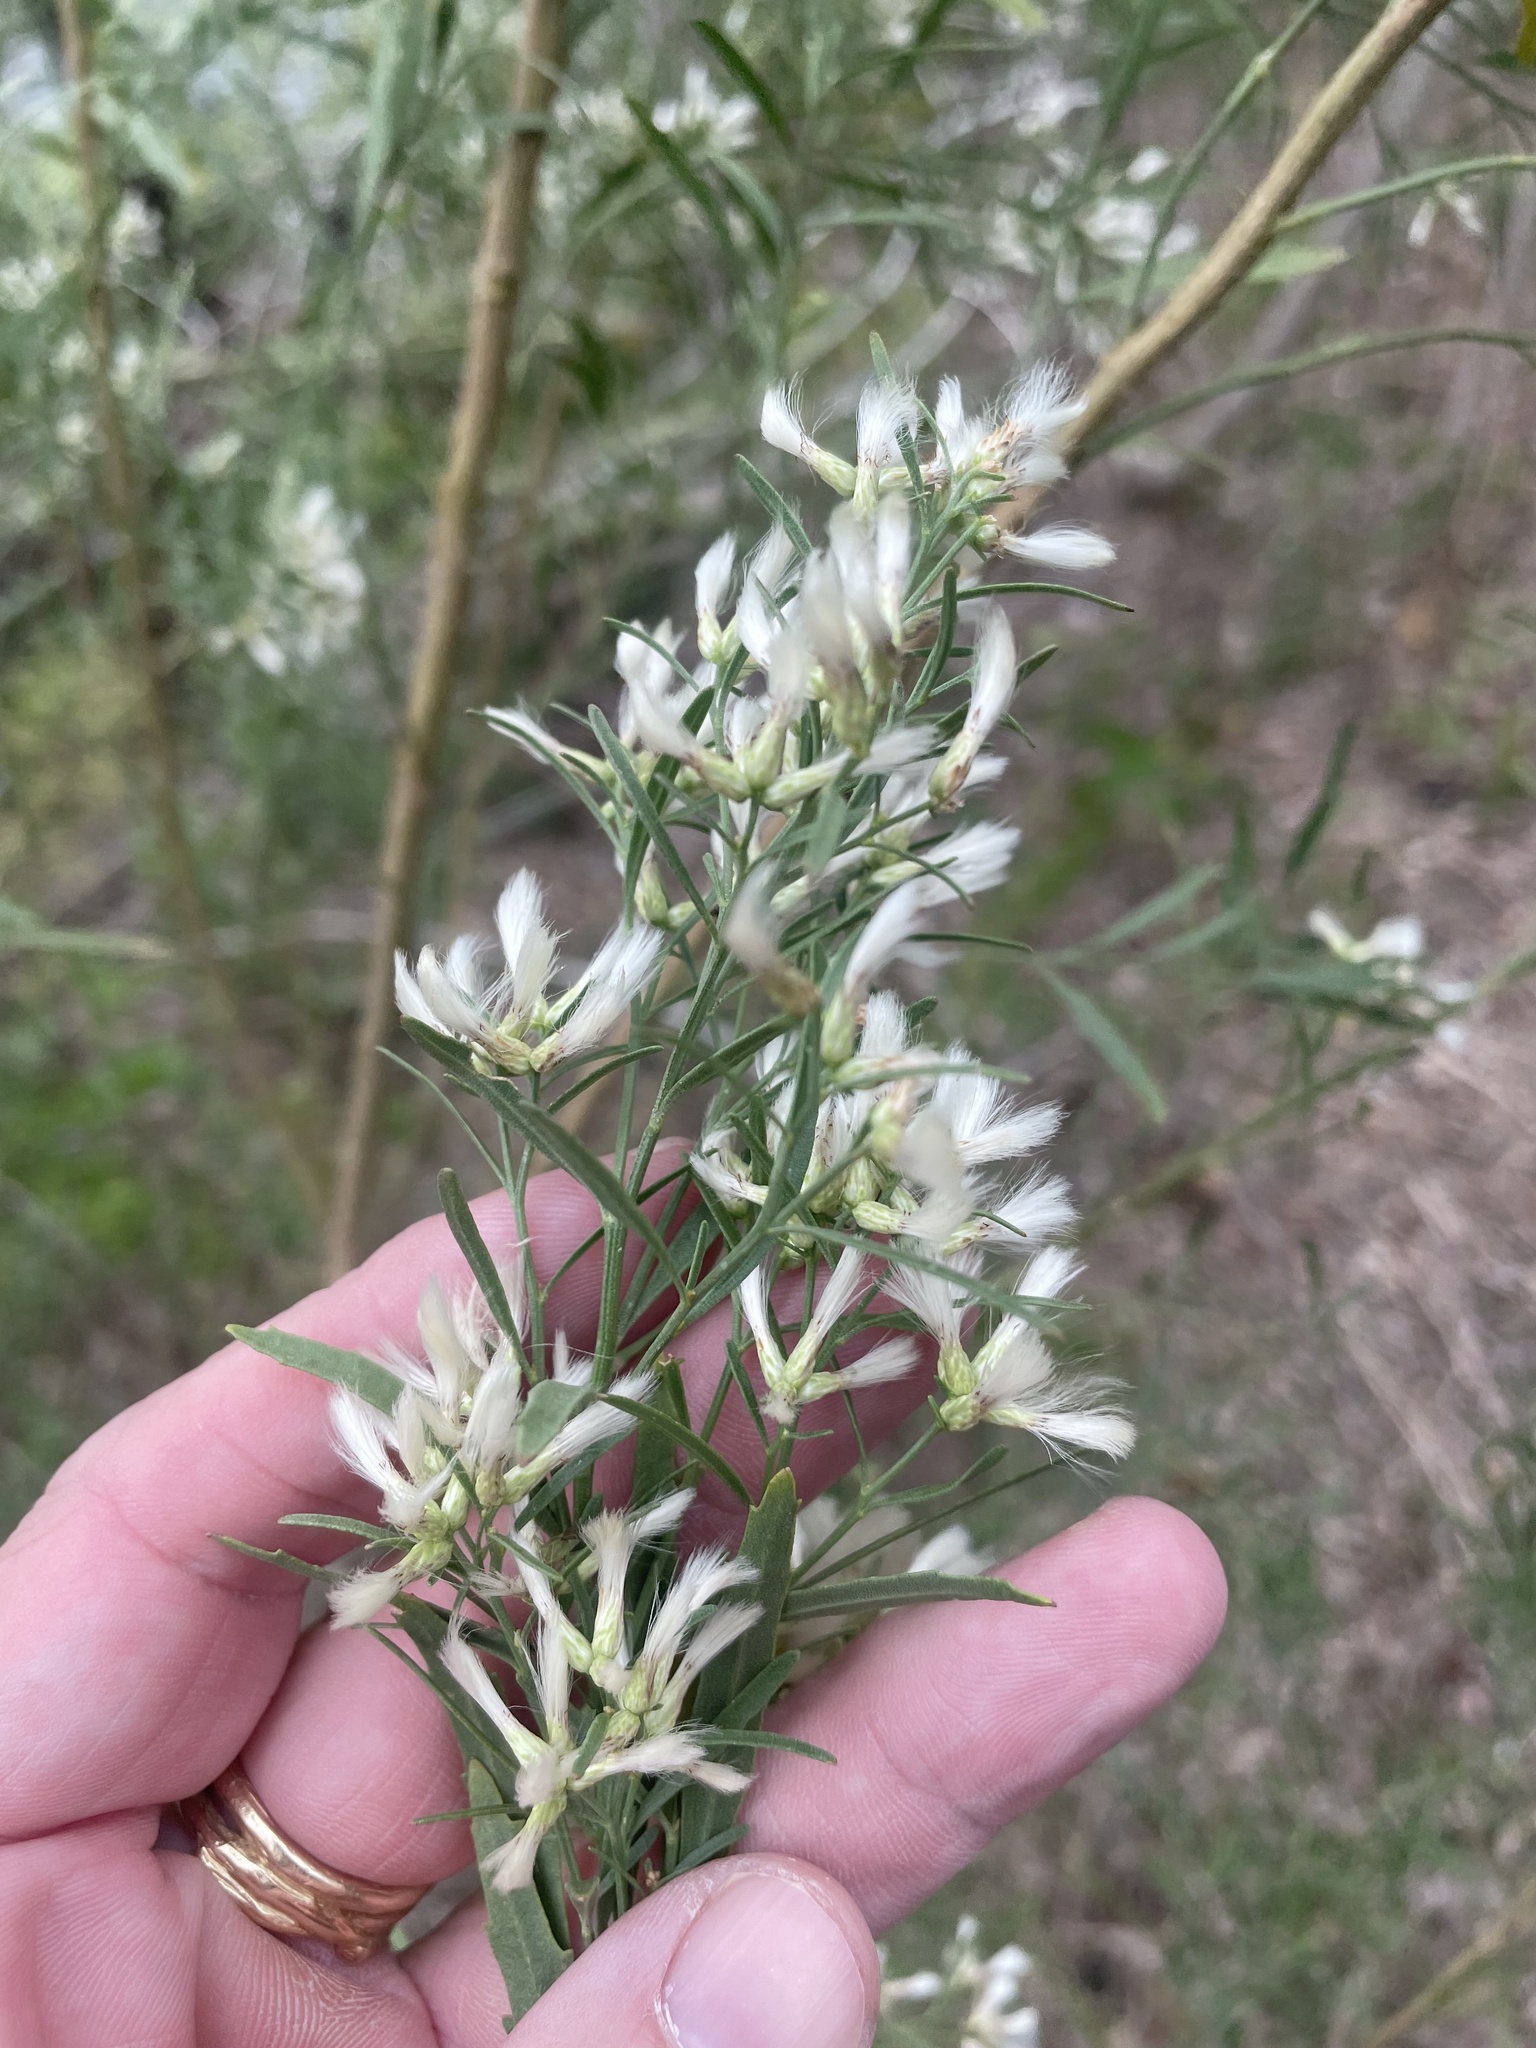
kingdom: Plantae
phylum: Tracheophyta
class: Magnoliopsida
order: Asterales
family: Asteraceae
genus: Baccharis
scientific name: Baccharis neglecta
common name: Roosevelt-weed
